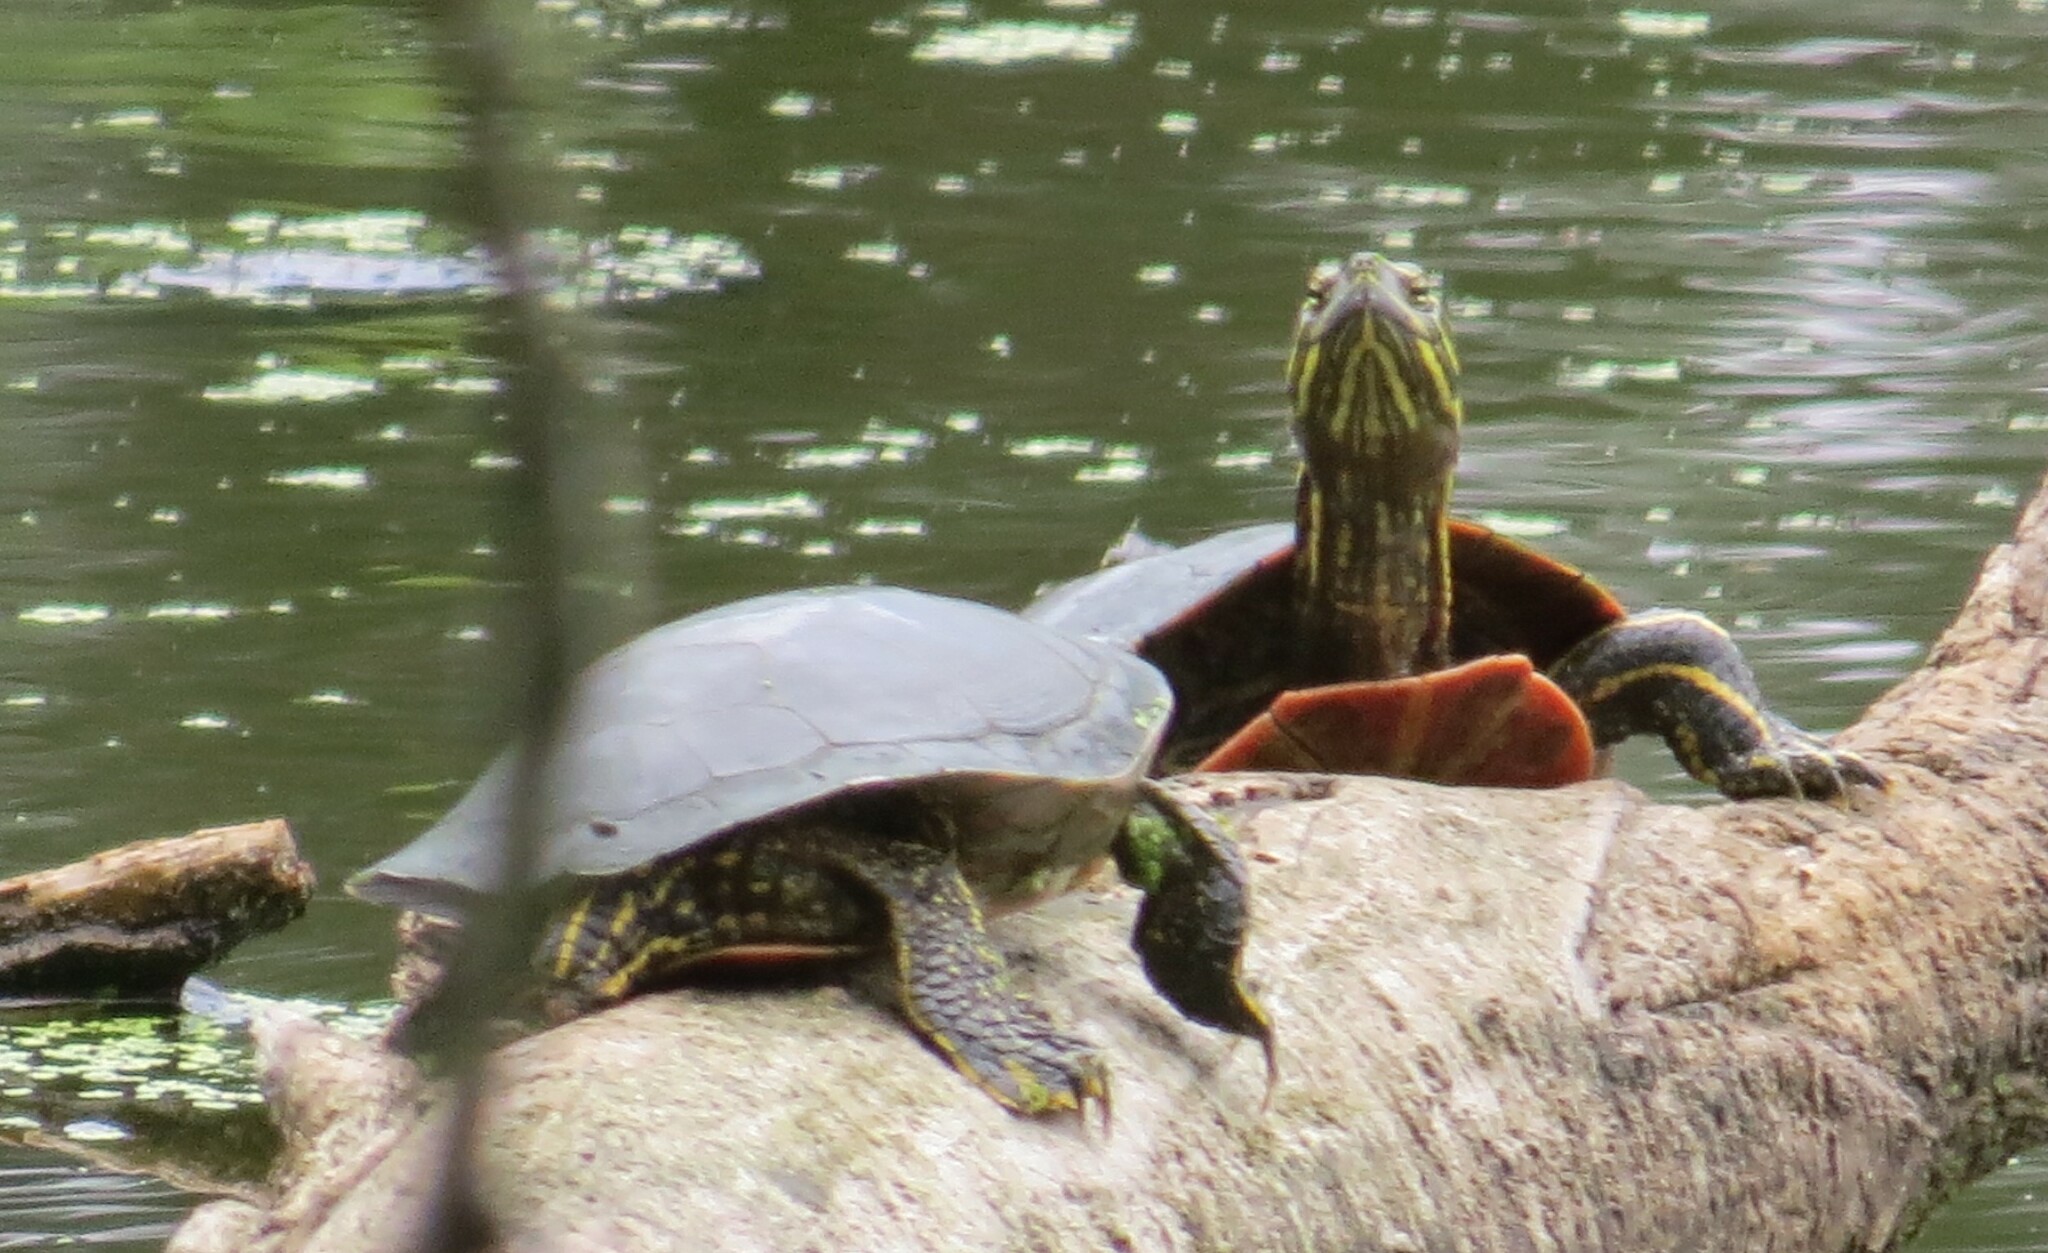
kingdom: Animalia
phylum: Chordata
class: Testudines
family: Emydidae
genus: Chrysemys
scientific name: Chrysemys picta
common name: Painted turtle
